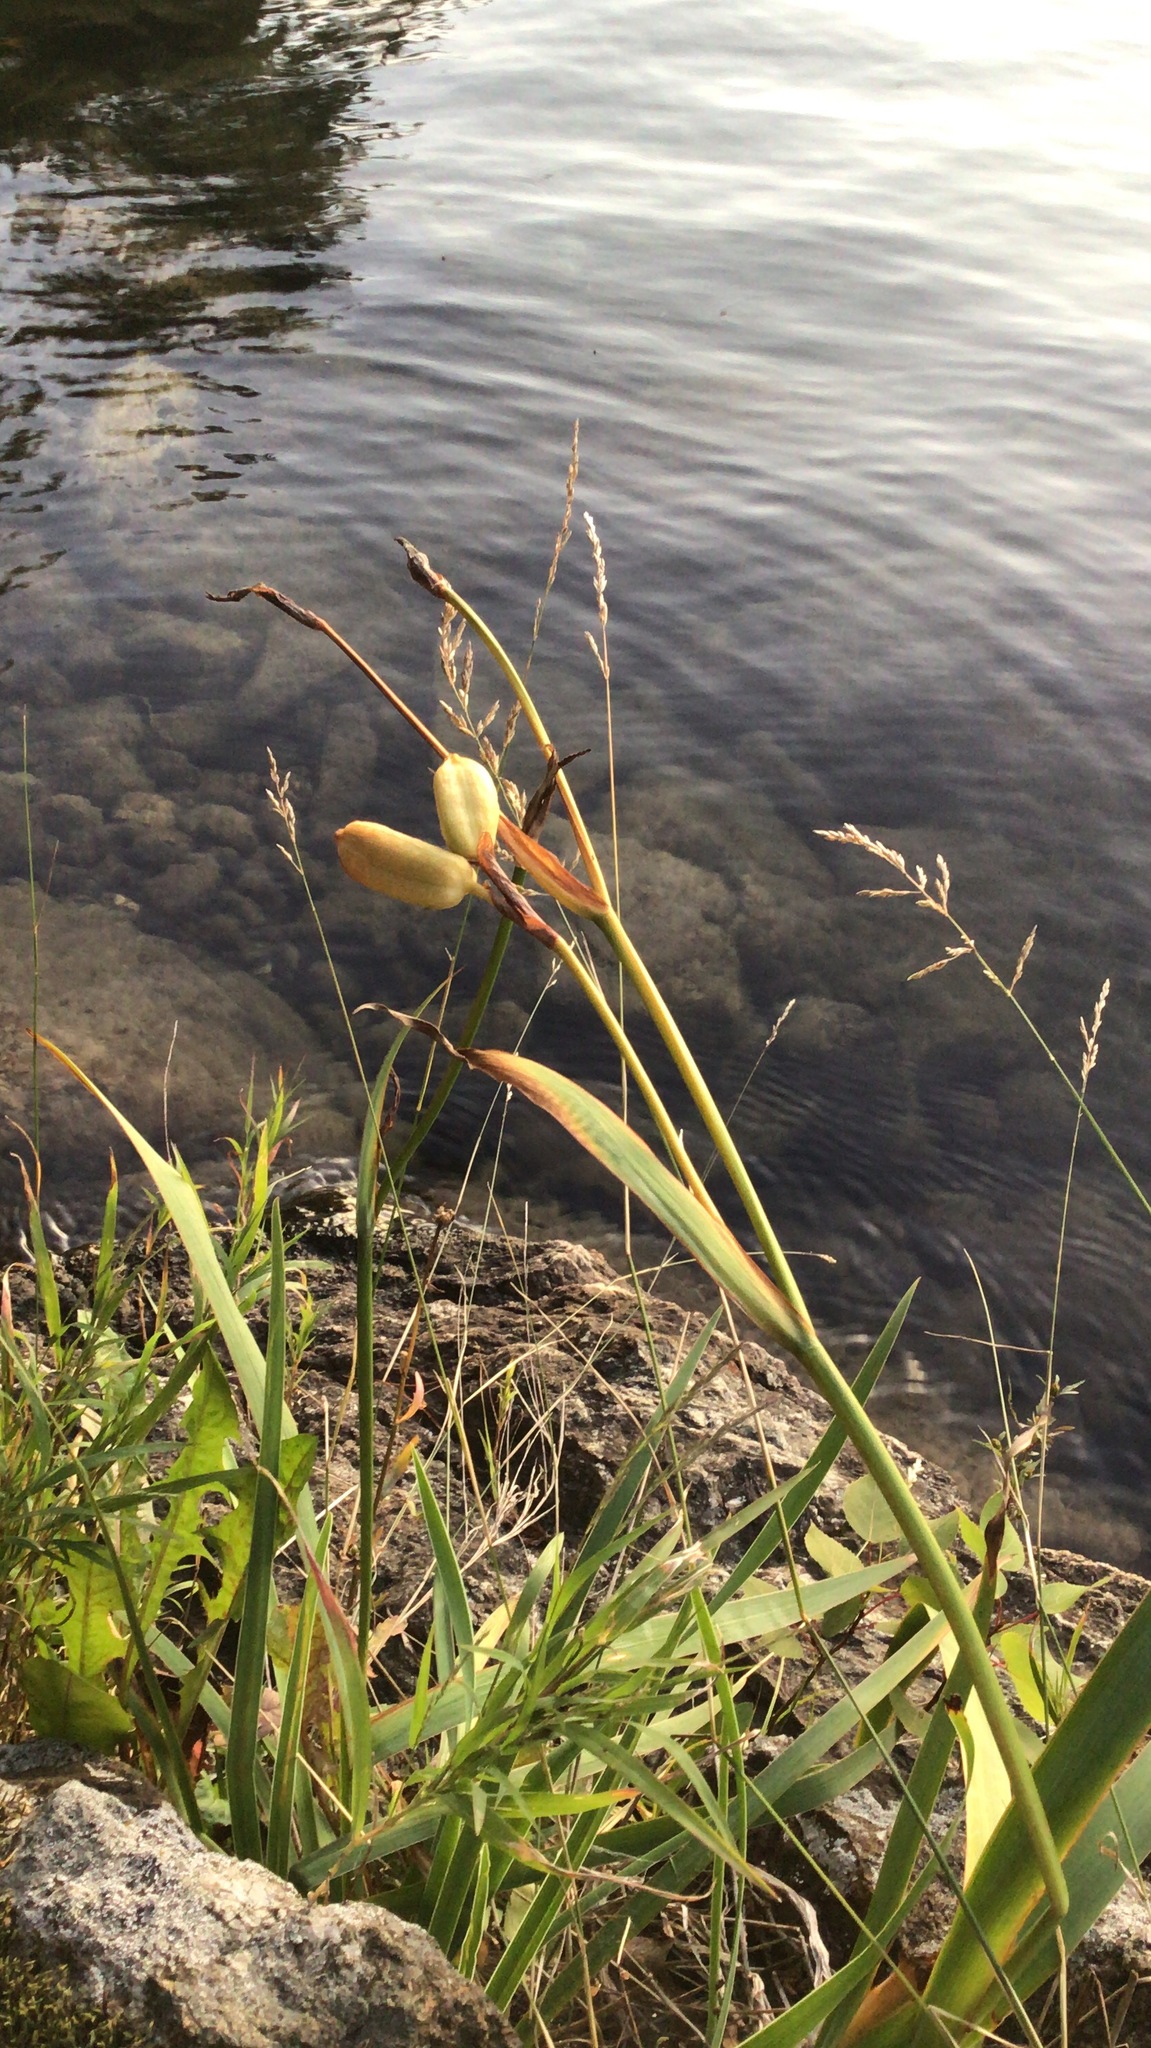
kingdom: Plantae
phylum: Tracheophyta
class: Liliopsida
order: Asparagales
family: Iridaceae
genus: Iris
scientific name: Iris versicolor
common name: Purple iris
